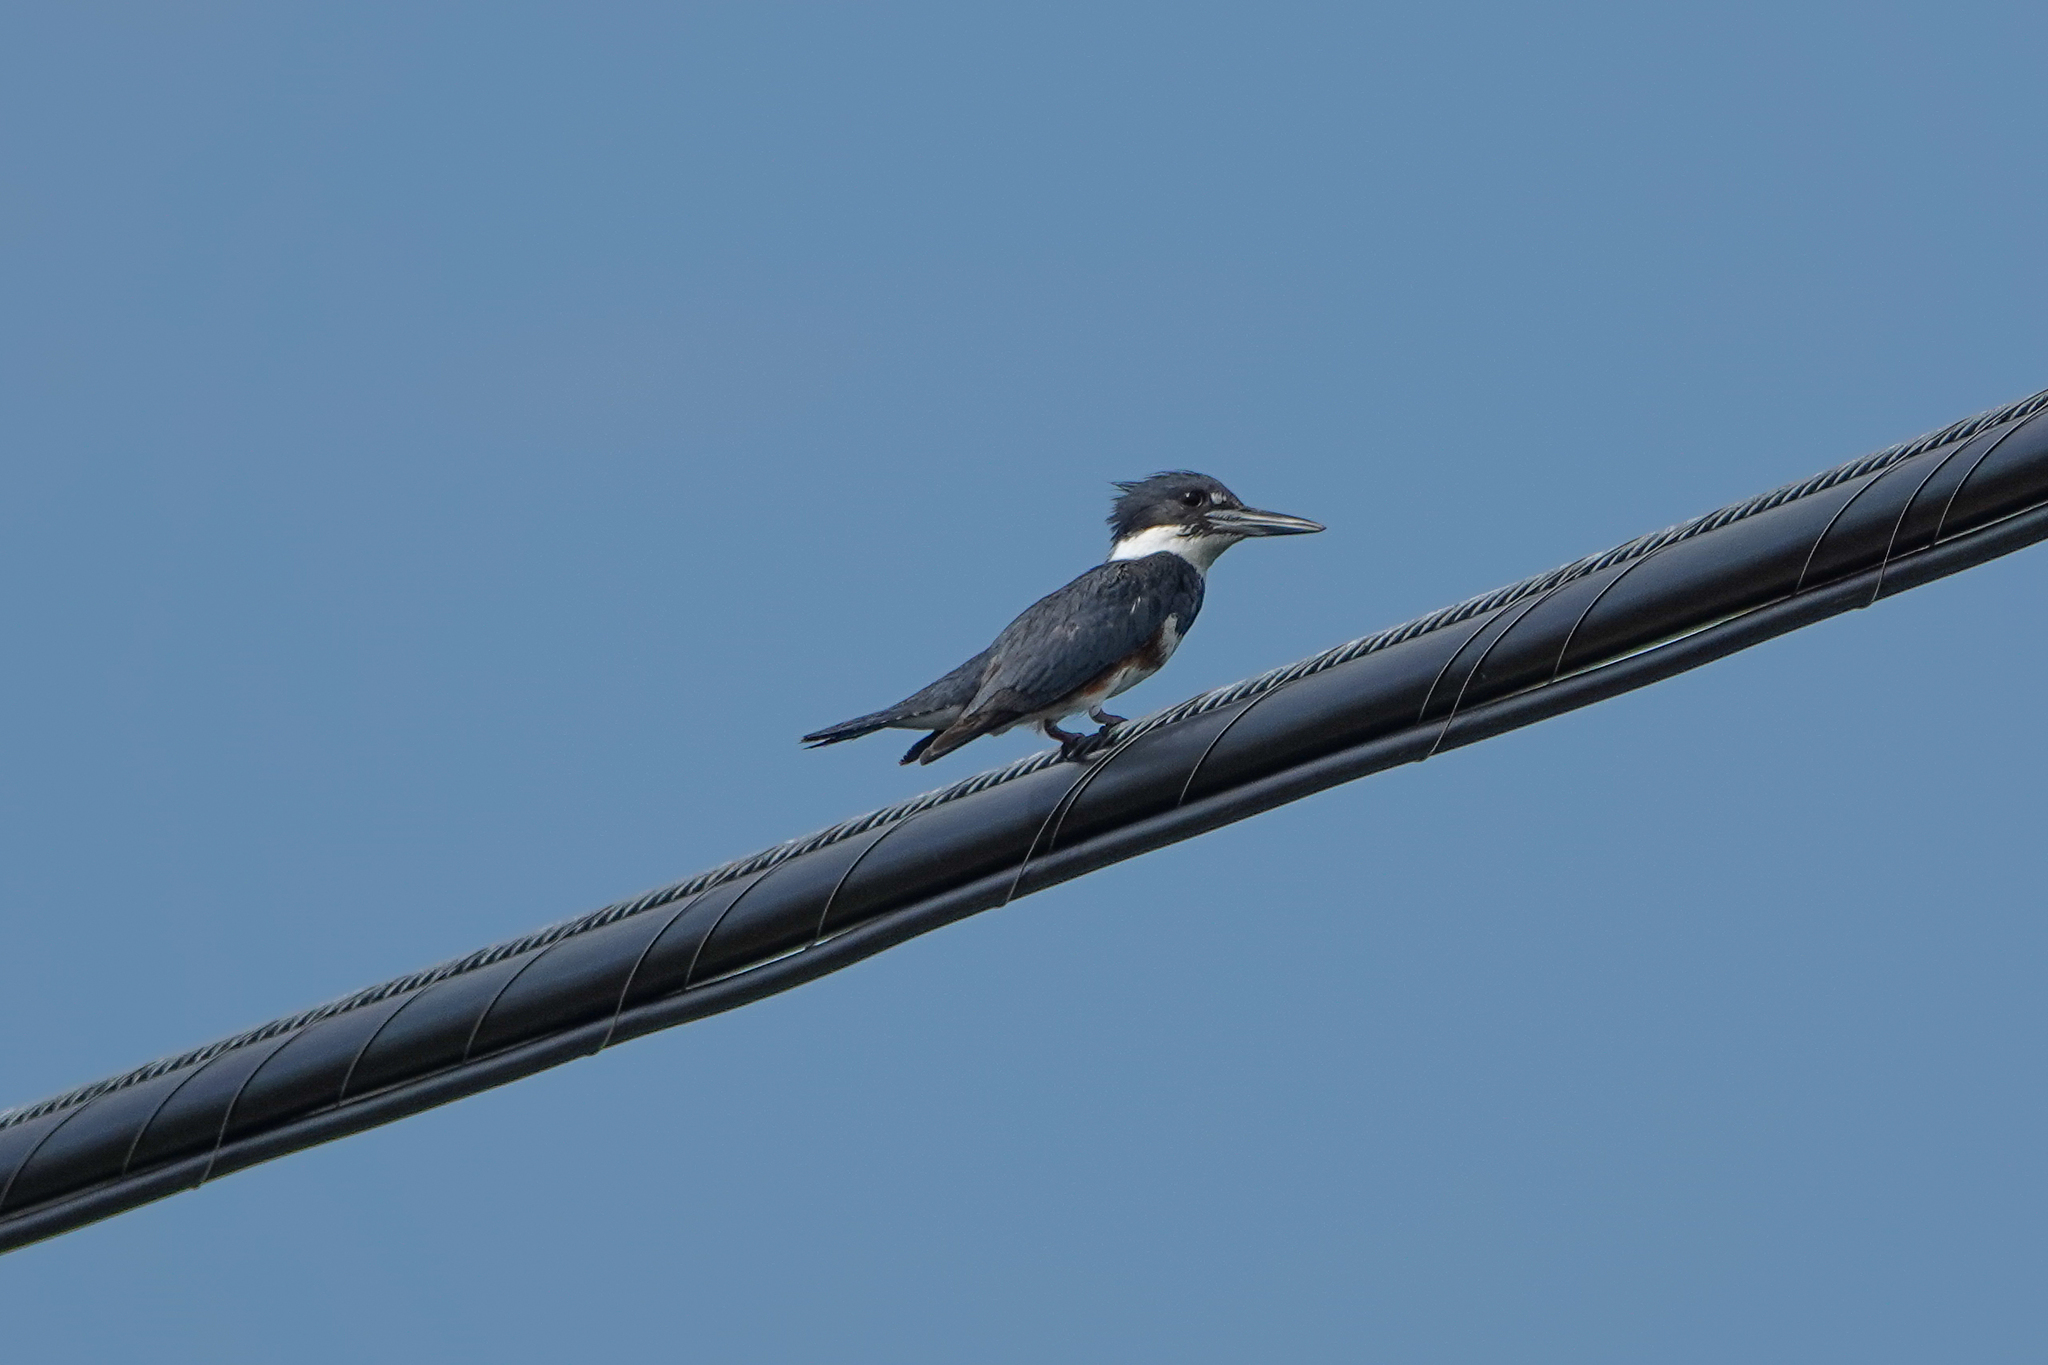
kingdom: Animalia
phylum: Chordata
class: Aves
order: Coraciiformes
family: Alcedinidae
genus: Megaceryle
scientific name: Megaceryle alcyon
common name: Belted kingfisher
